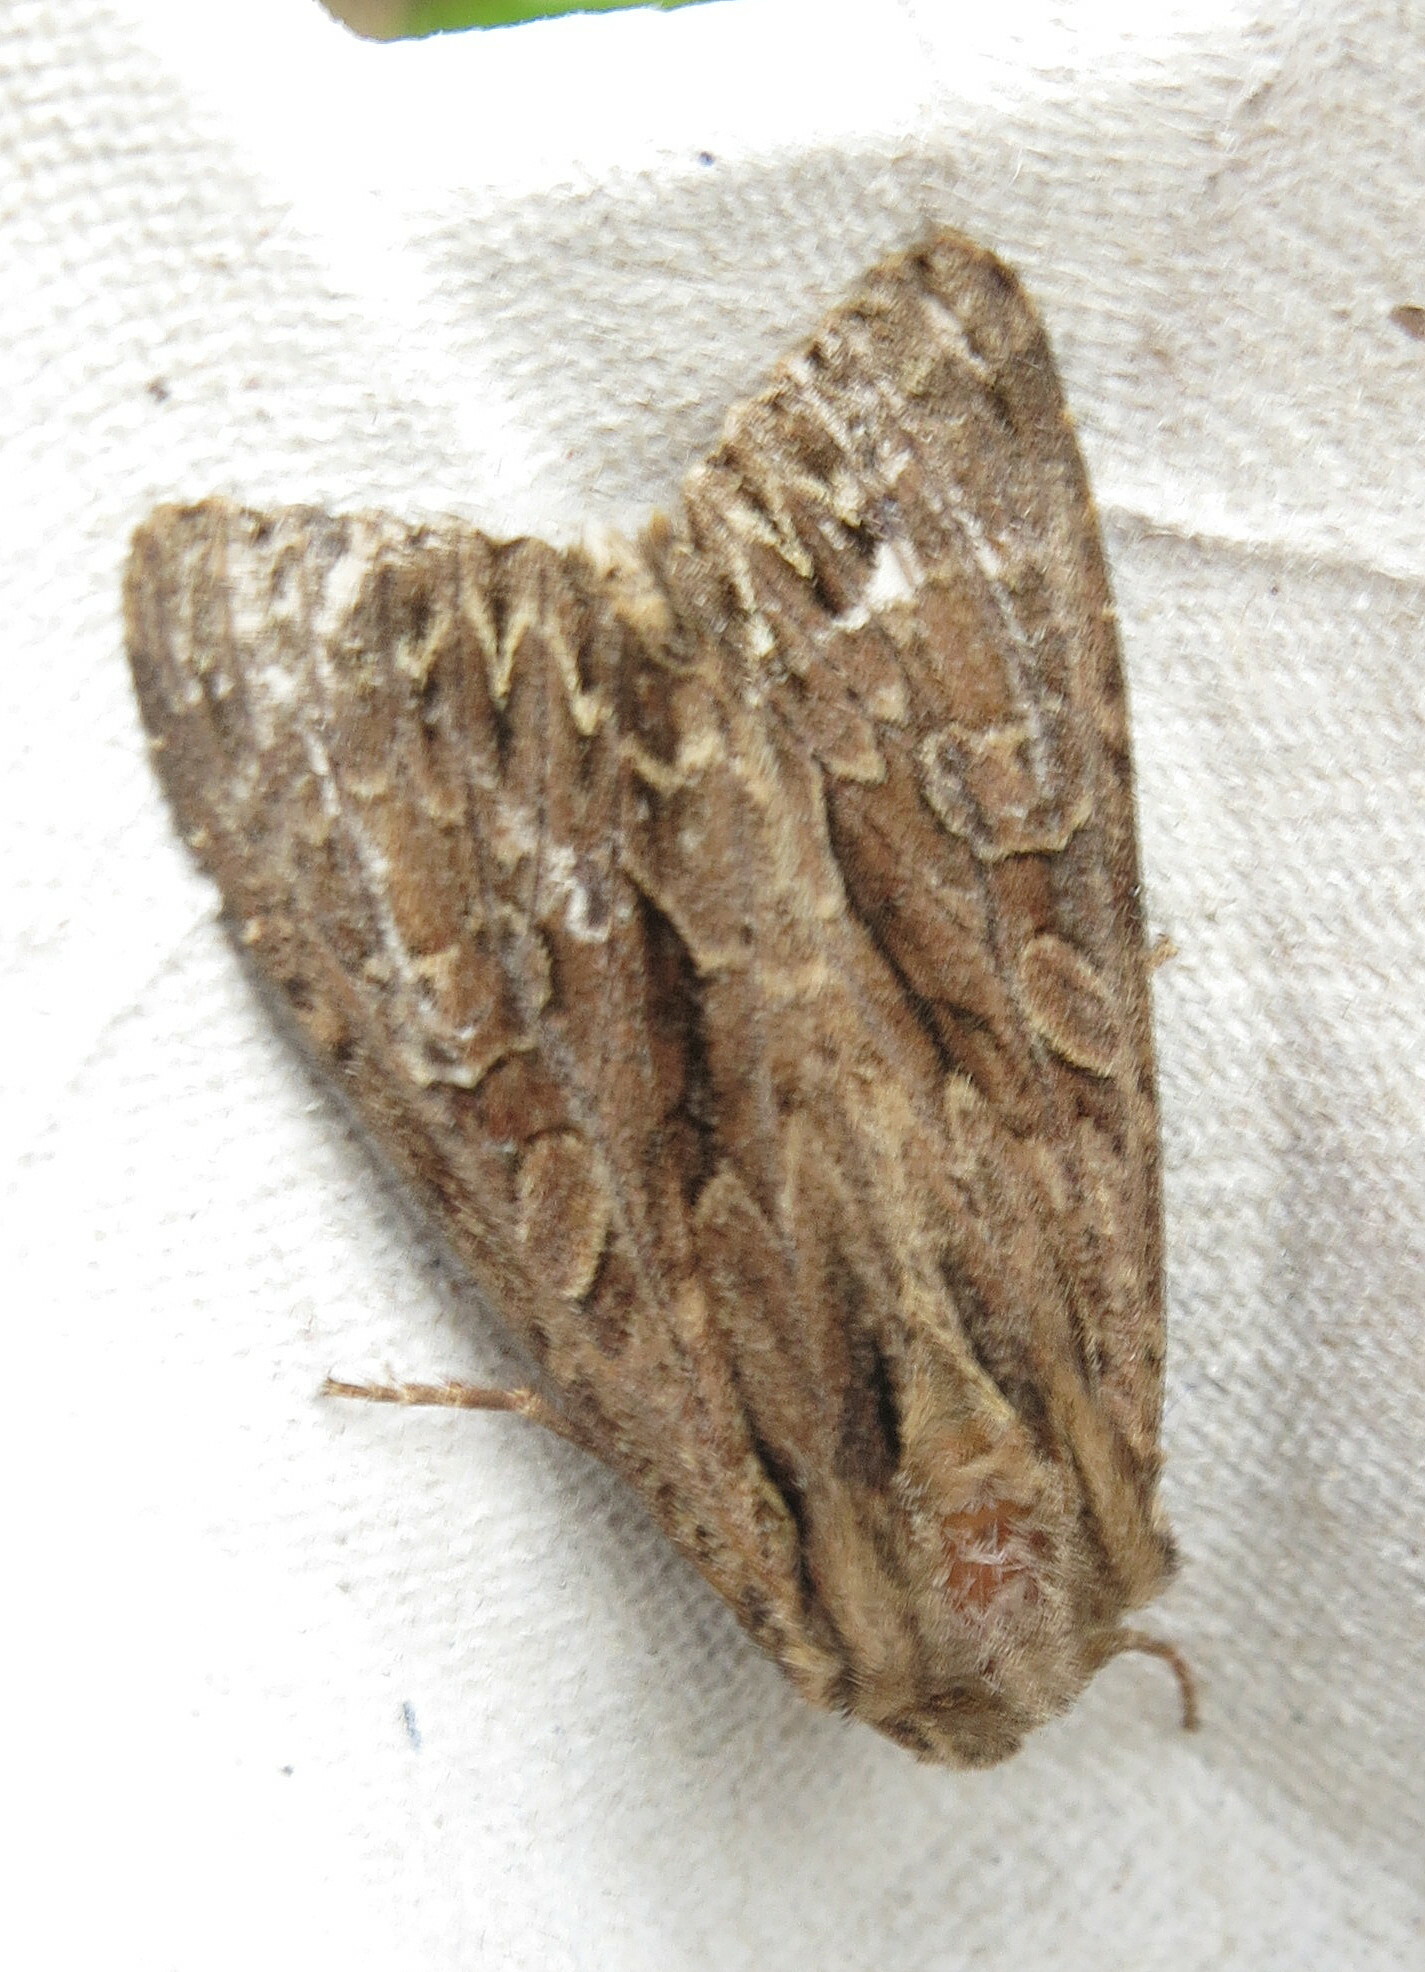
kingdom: Animalia
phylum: Arthropoda
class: Insecta
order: Lepidoptera
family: Noctuidae
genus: Apamea
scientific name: Apamea monoglypha
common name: Dark arches
